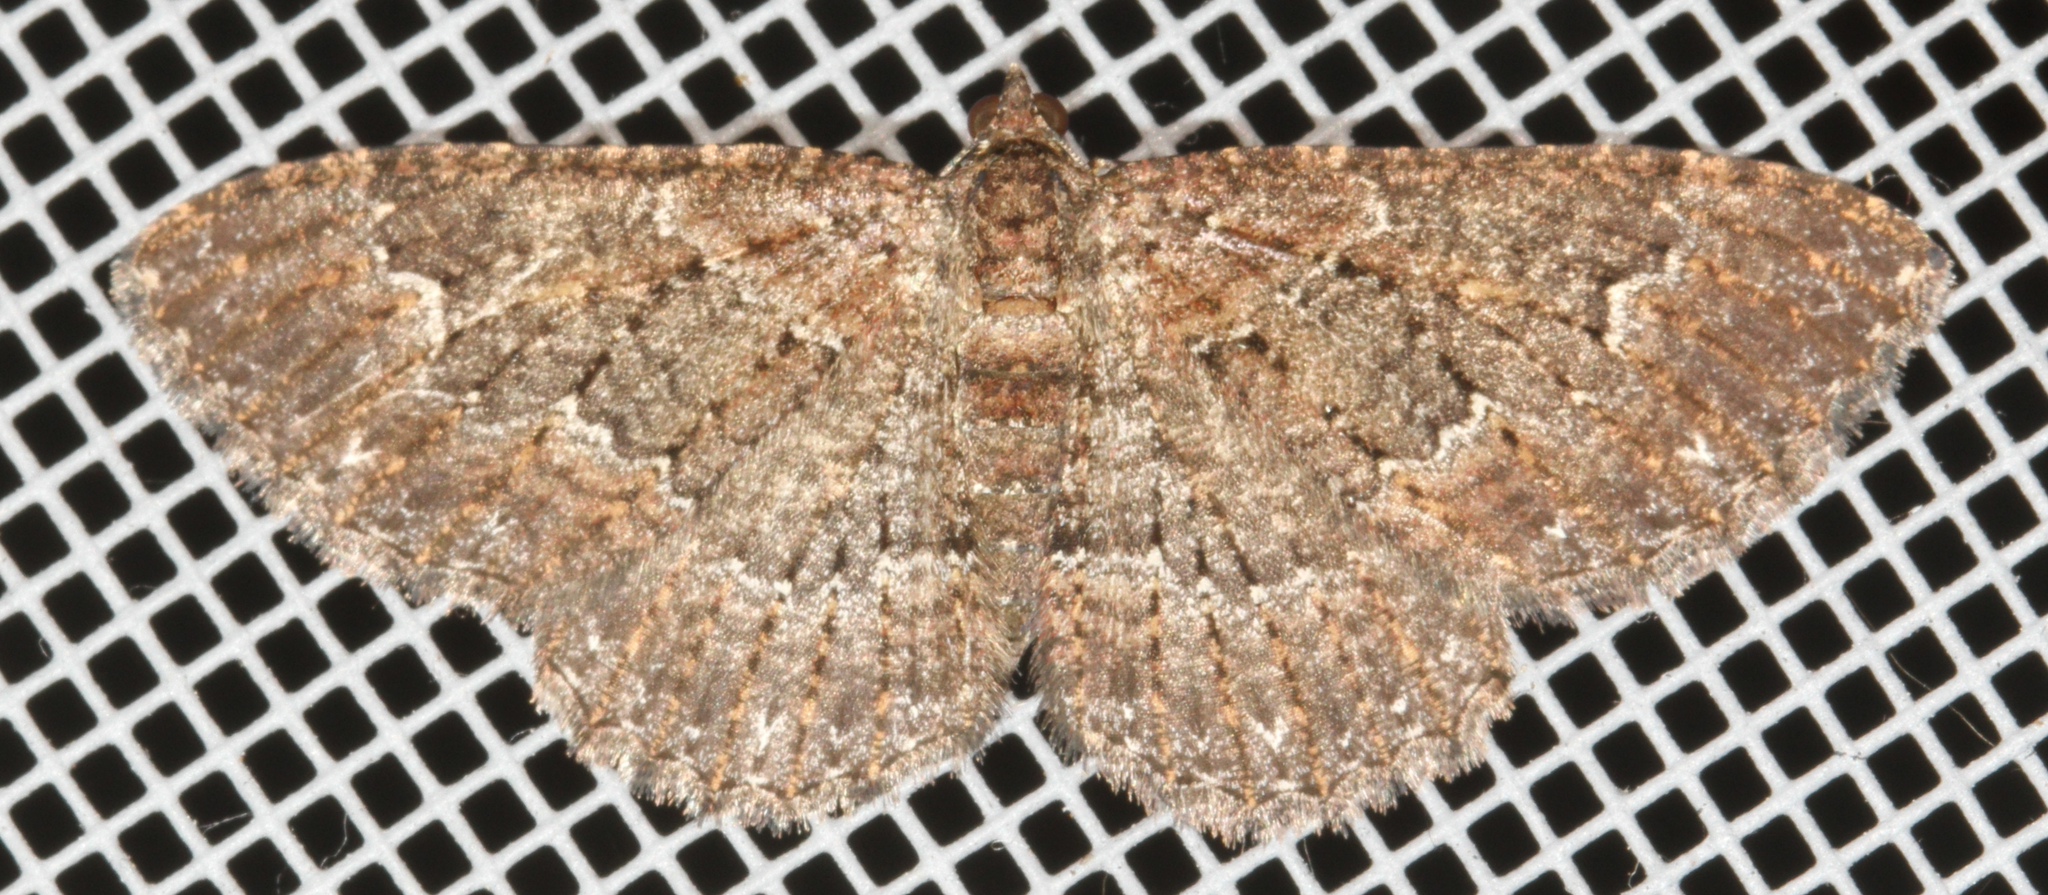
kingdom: Animalia
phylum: Arthropoda
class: Insecta
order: Lepidoptera
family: Geometridae
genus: Disclisioprocta
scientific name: Disclisioprocta stellata
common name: Somber carpet
